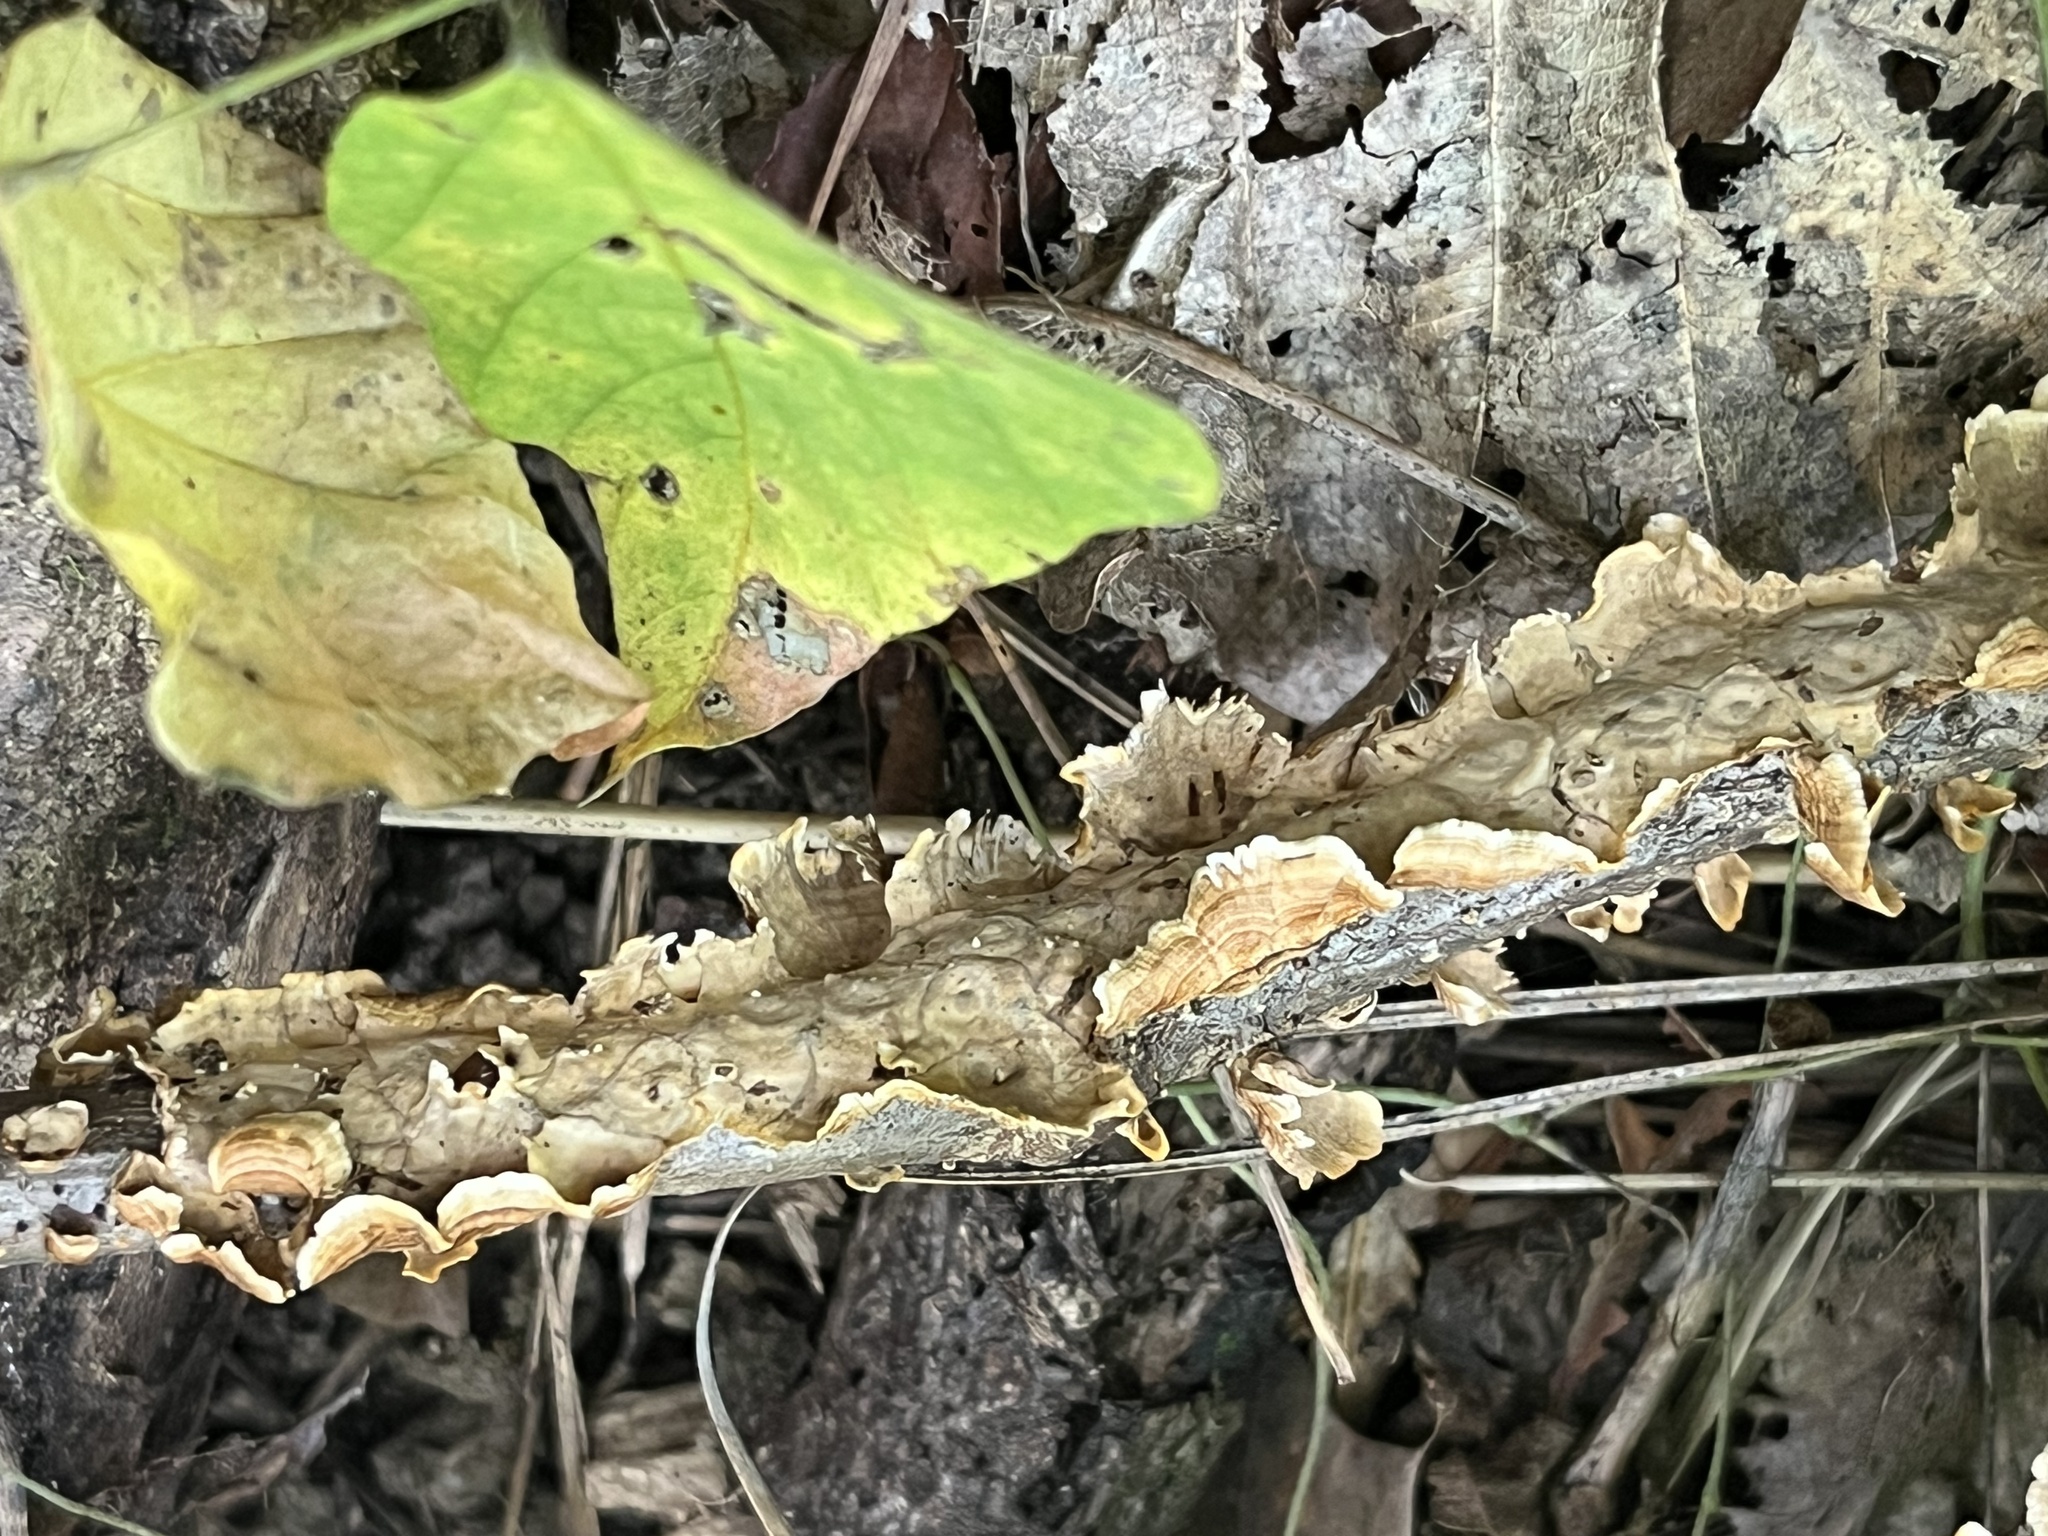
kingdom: Fungi
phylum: Basidiomycota
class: Agaricomycetes
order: Russulales
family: Stereaceae
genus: Stereum
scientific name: Stereum complicatum
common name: Crowded parchment
